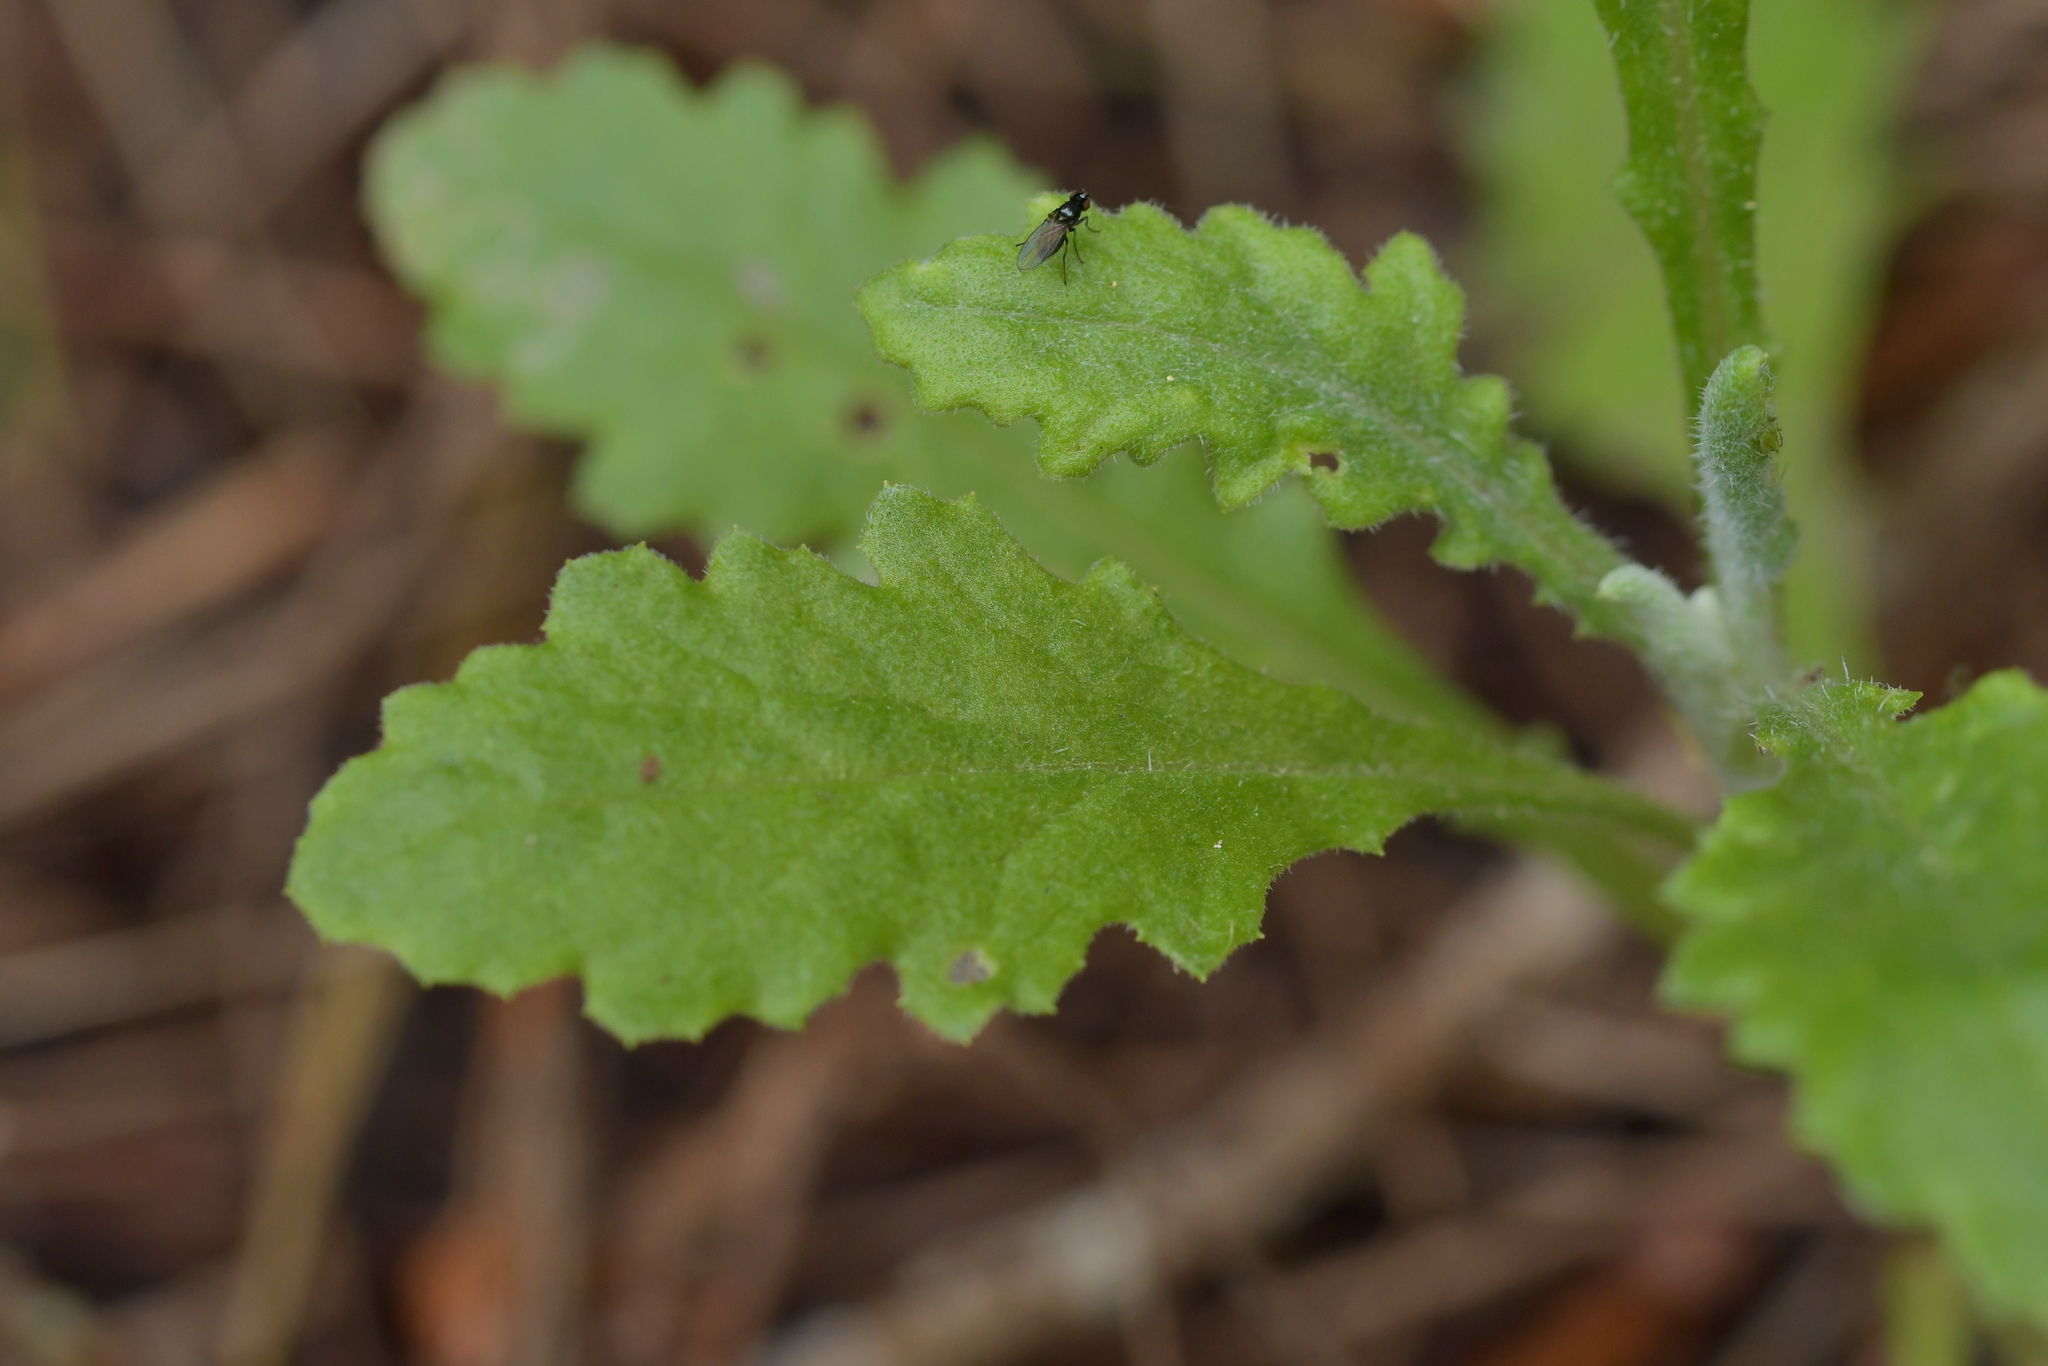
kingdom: Plantae
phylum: Tracheophyta
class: Magnoliopsida
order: Asterales
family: Asteraceae
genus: Senecio
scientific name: Senecio glomeratus
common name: Cutleaf burnweed
